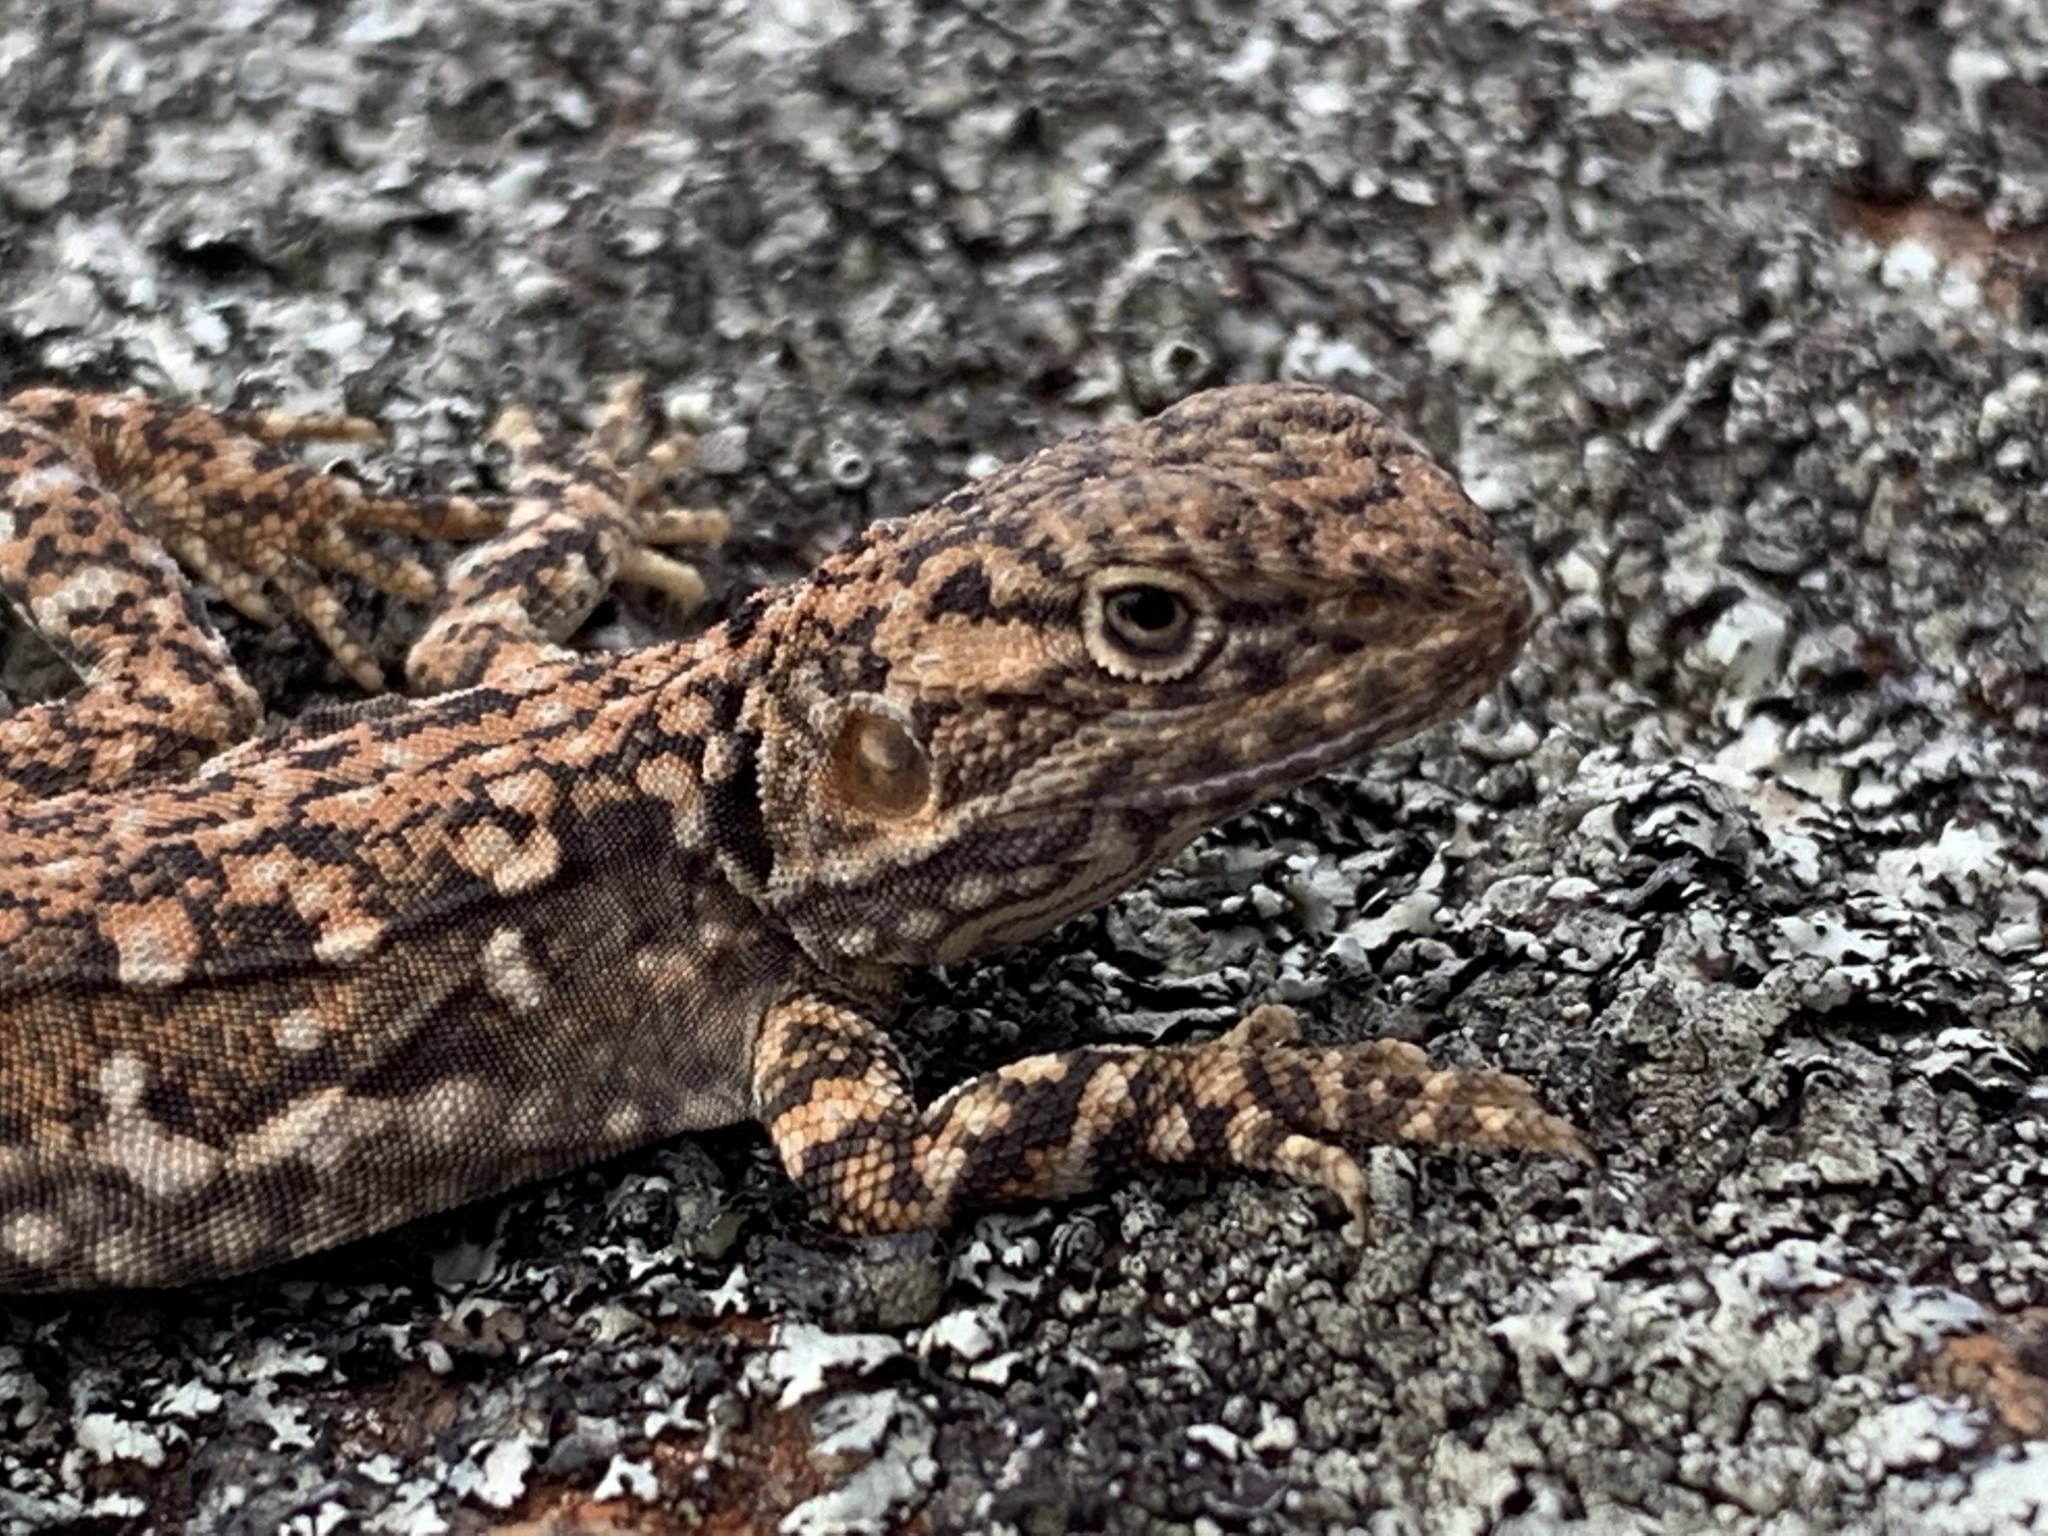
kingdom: Animalia
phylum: Chordata
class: Squamata
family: Agamidae
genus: Ctenophorus
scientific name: Ctenophorus fionni
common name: Peninsula crevis-dragon
